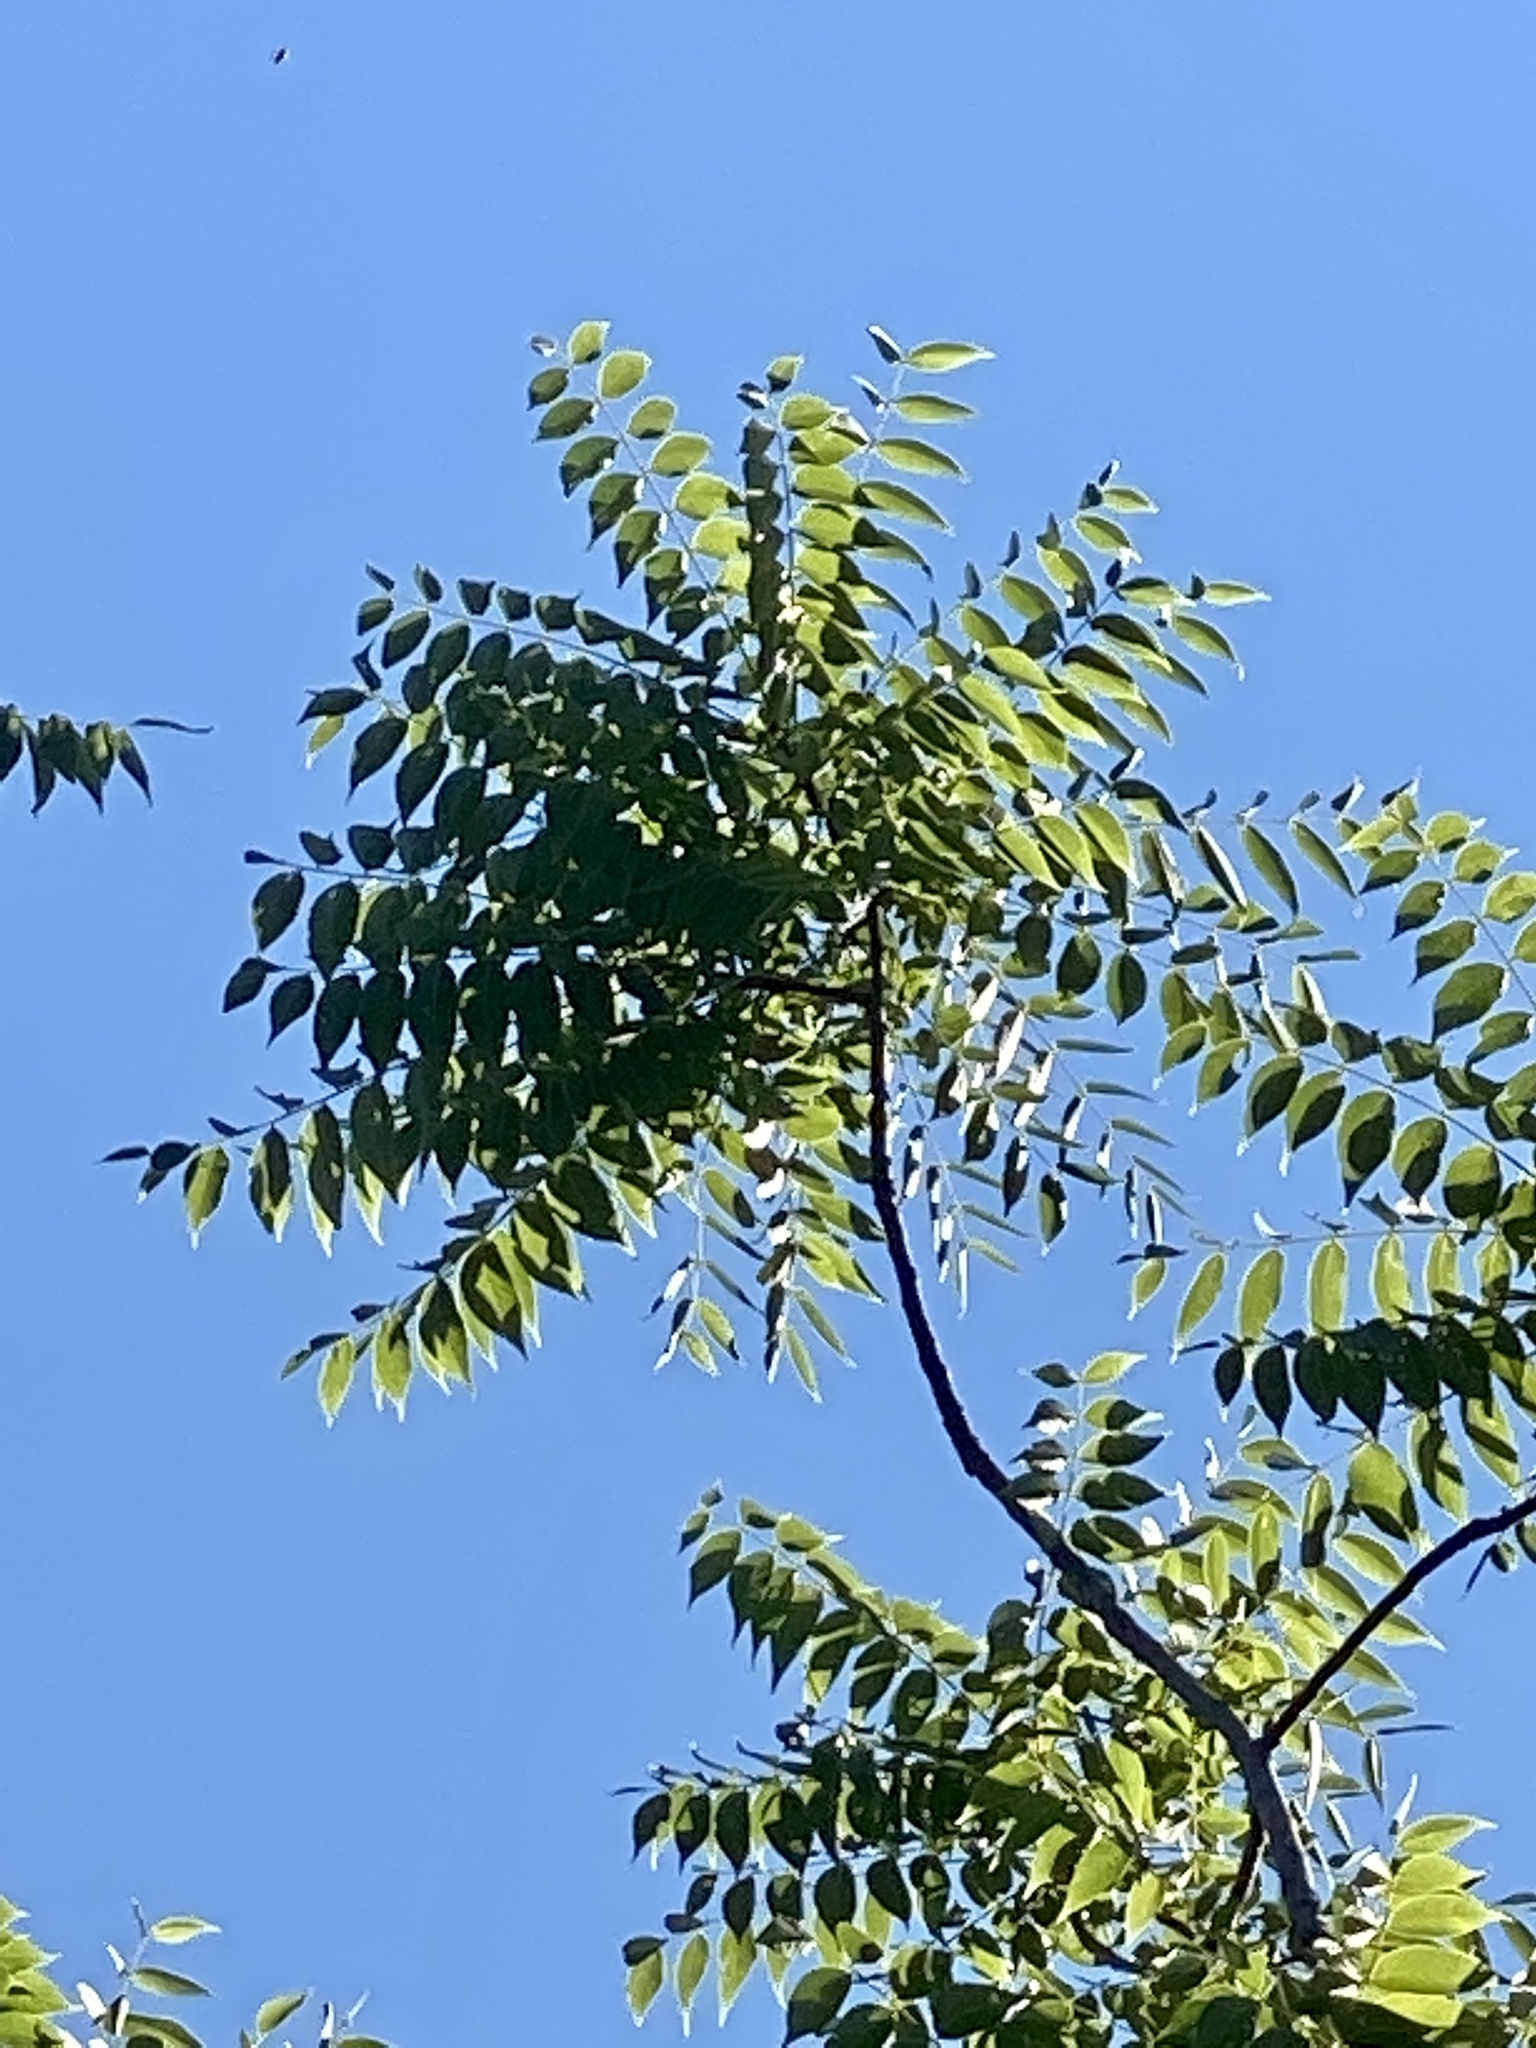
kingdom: Plantae
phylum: Tracheophyta
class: Magnoliopsida
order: Fagales
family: Juglandaceae
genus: Juglans
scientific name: Juglans nigra
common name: Black walnut
